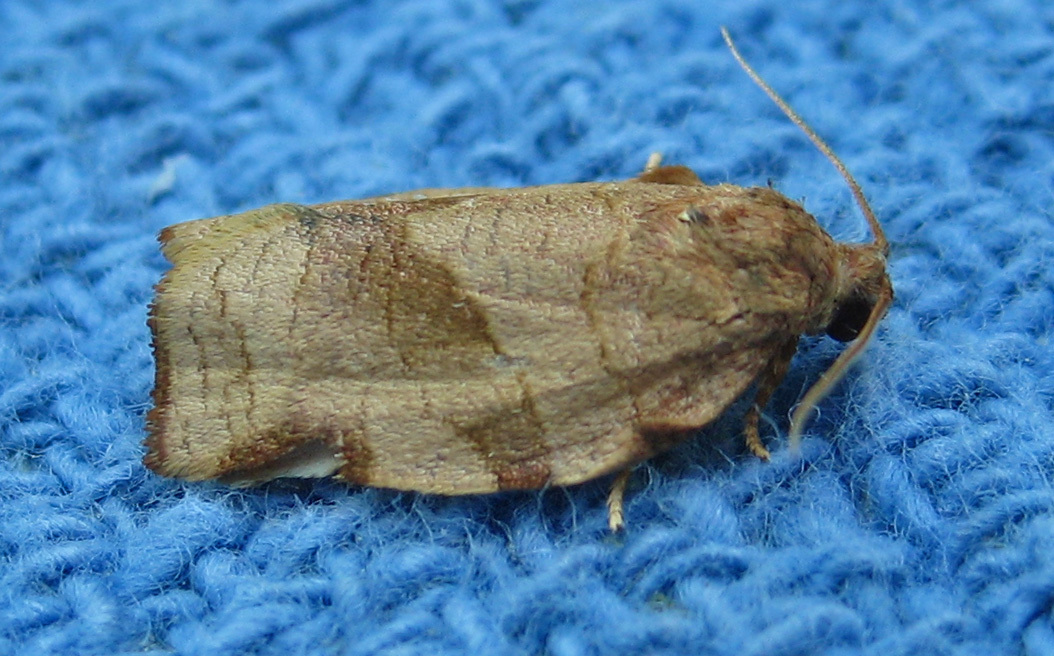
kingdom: Animalia
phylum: Arthropoda
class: Insecta
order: Lepidoptera
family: Tortricidae
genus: Choristoneura
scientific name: Choristoneura rosaceana
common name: Oblique-banded leafroller moth
